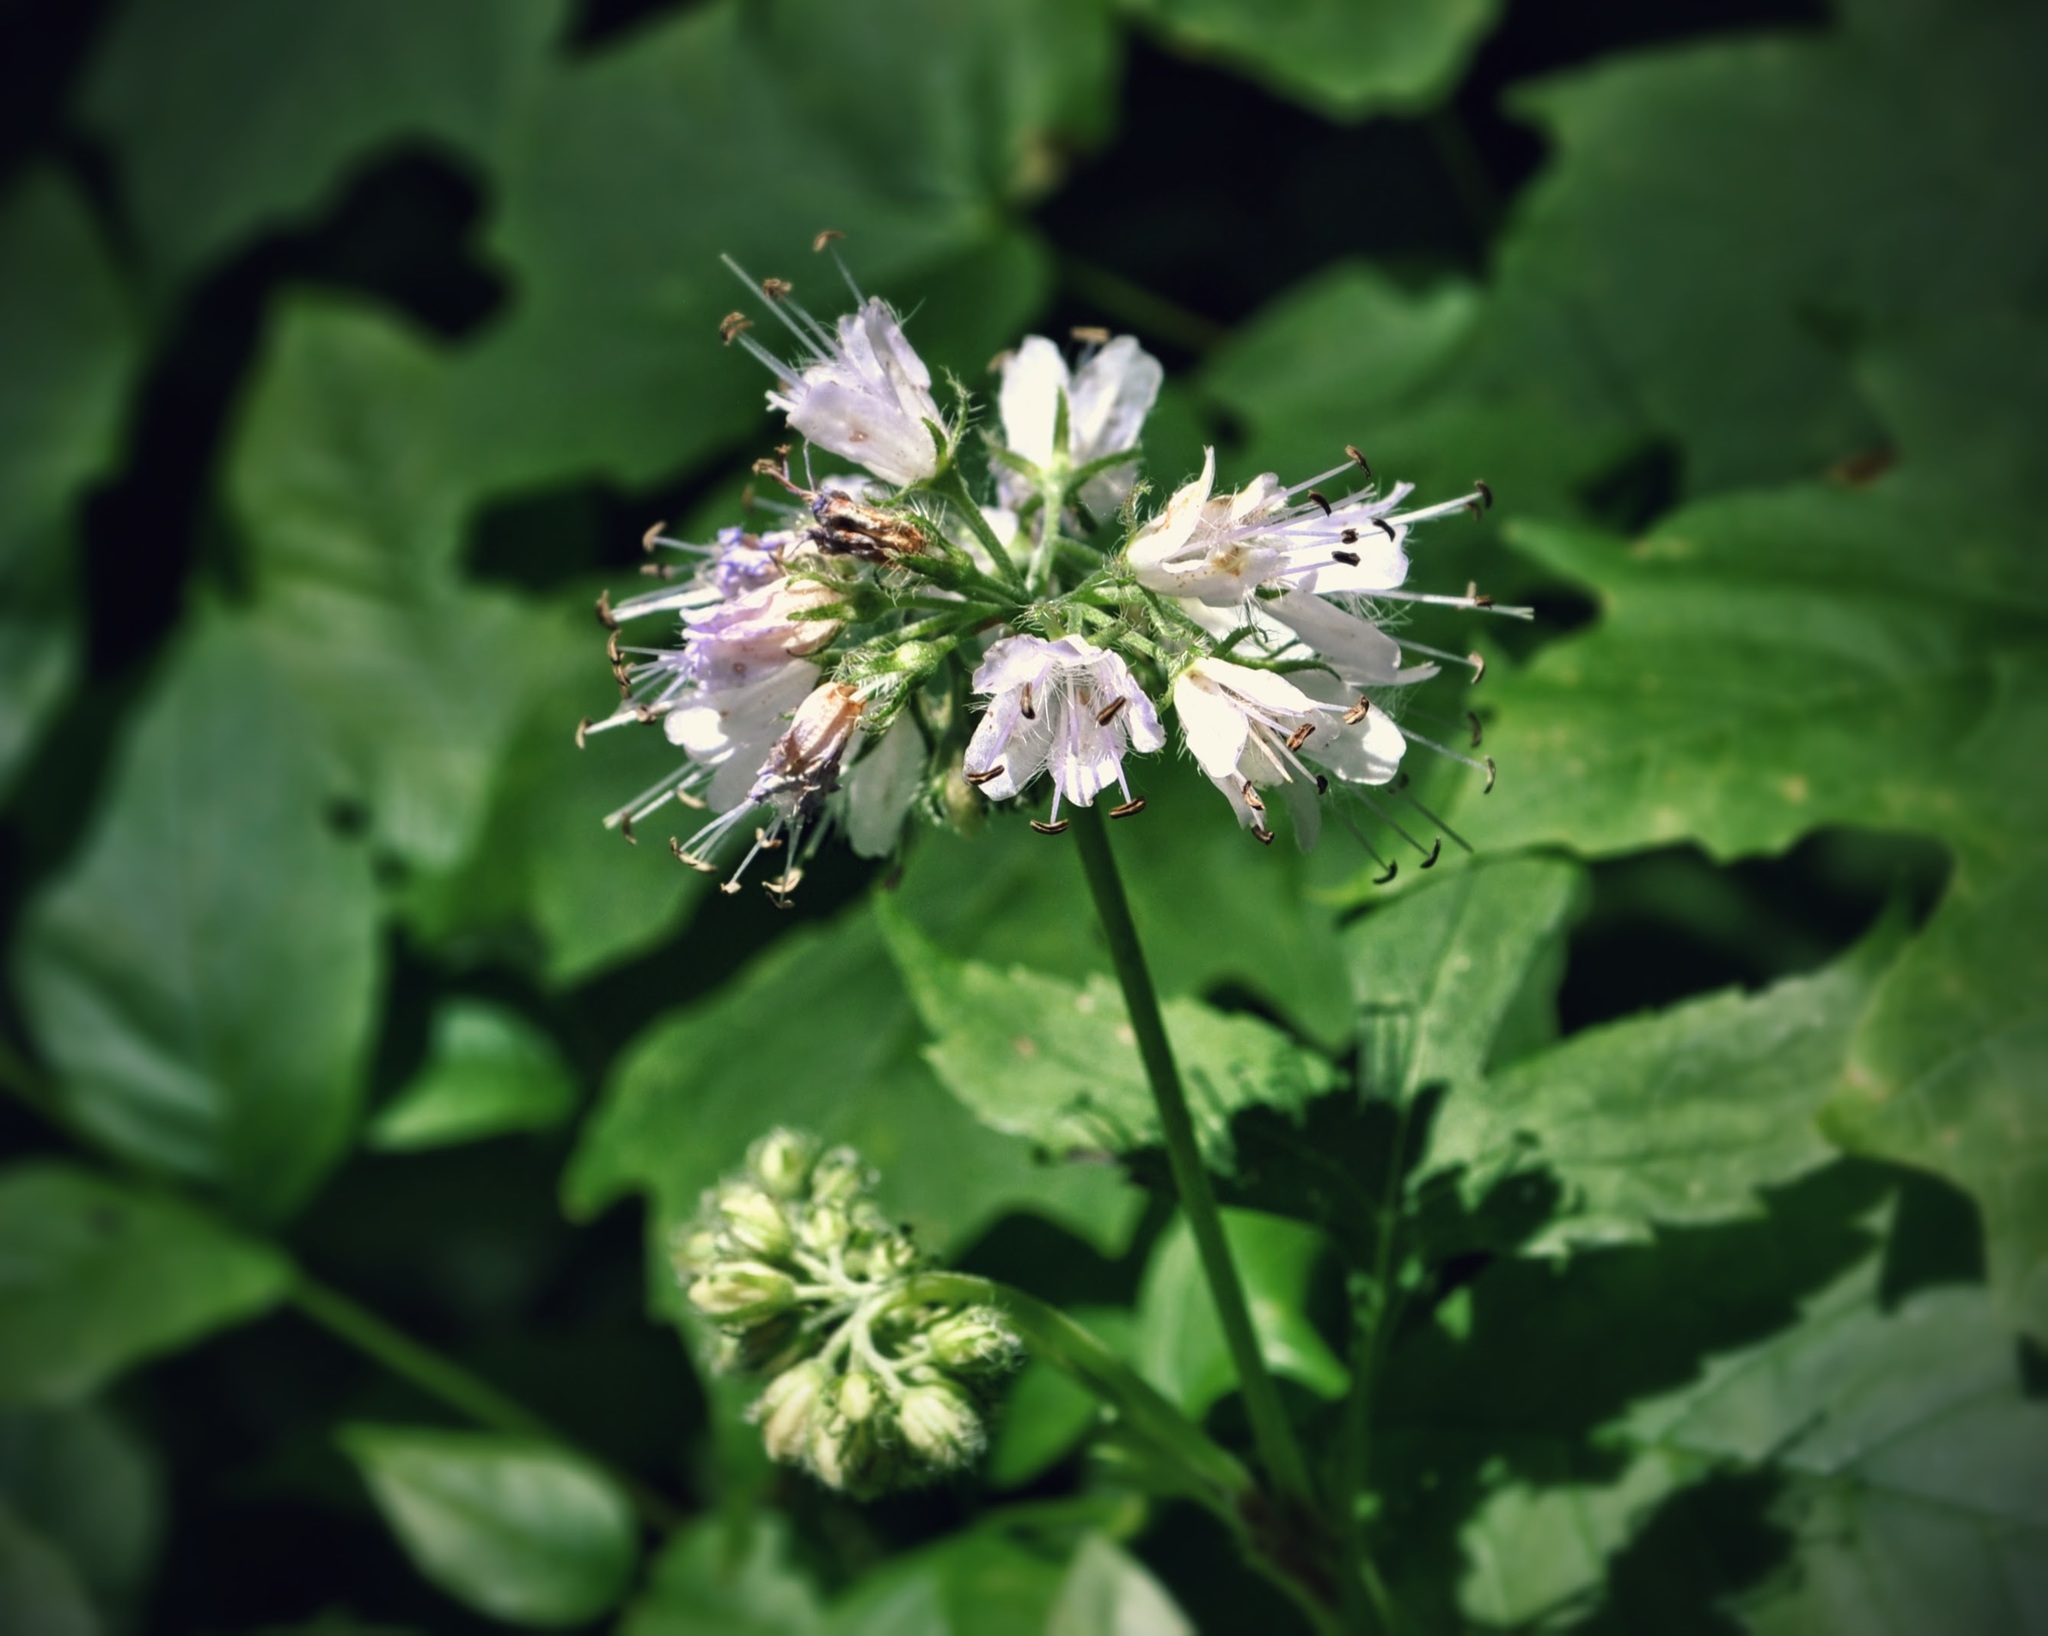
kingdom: Plantae
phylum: Tracheophyta
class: Magnoliopsida
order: Boraginales
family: Hydrophyllaceae
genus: Hydrophyllum
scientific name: Hydrophyllum virginianum
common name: Virginia waterleaf
